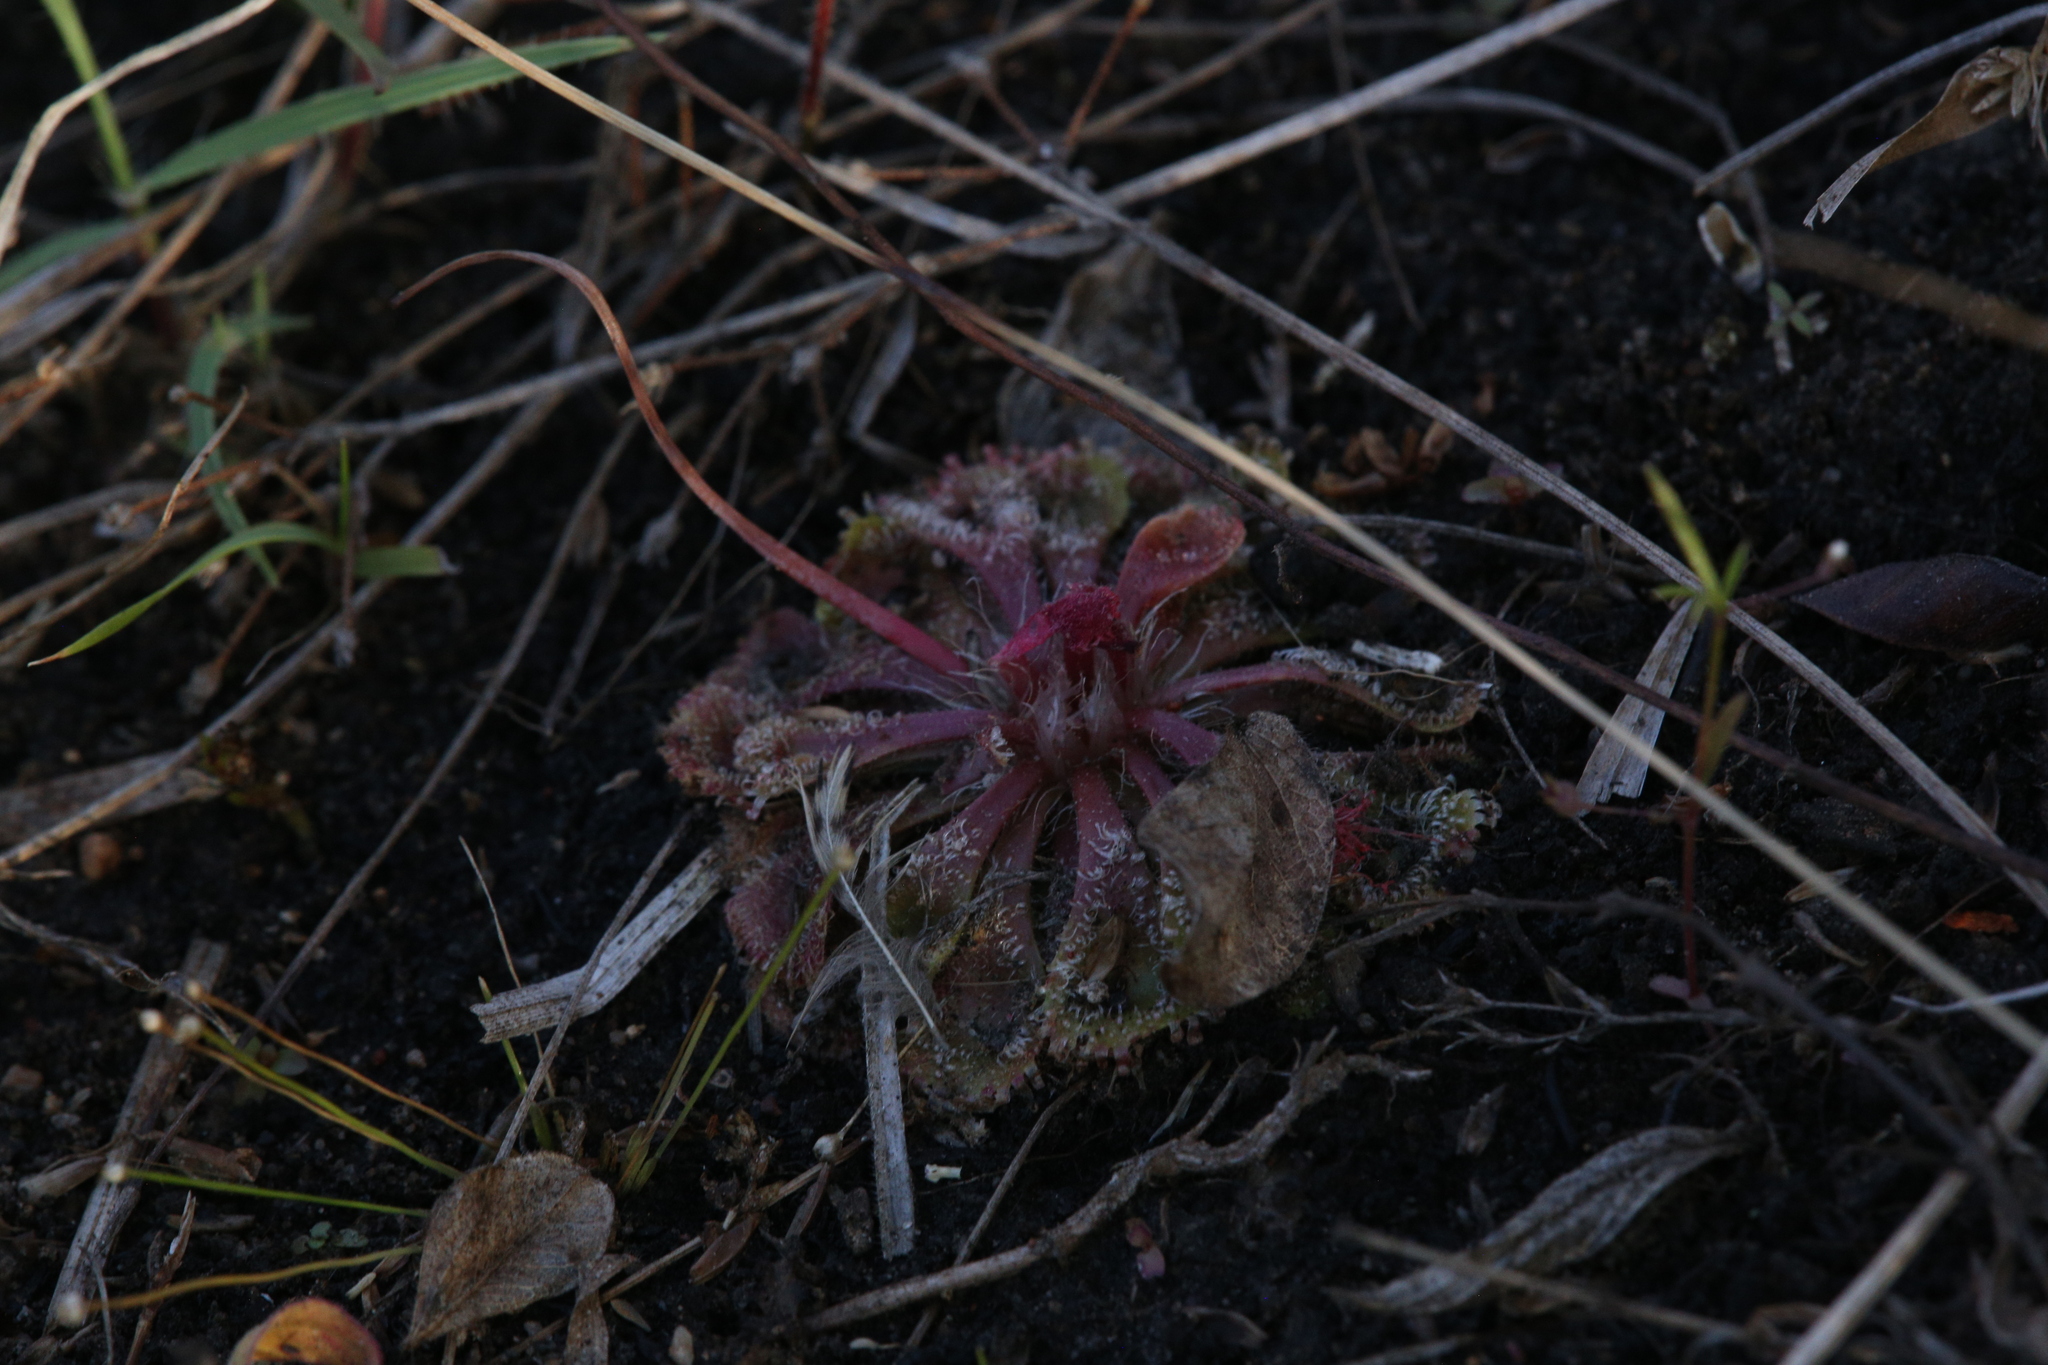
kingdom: Plantae
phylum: Tracheophyta
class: Magnoliopsida
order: Caryophyllales
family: Droseraceae
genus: Drosera
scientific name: Drosera spatulata
